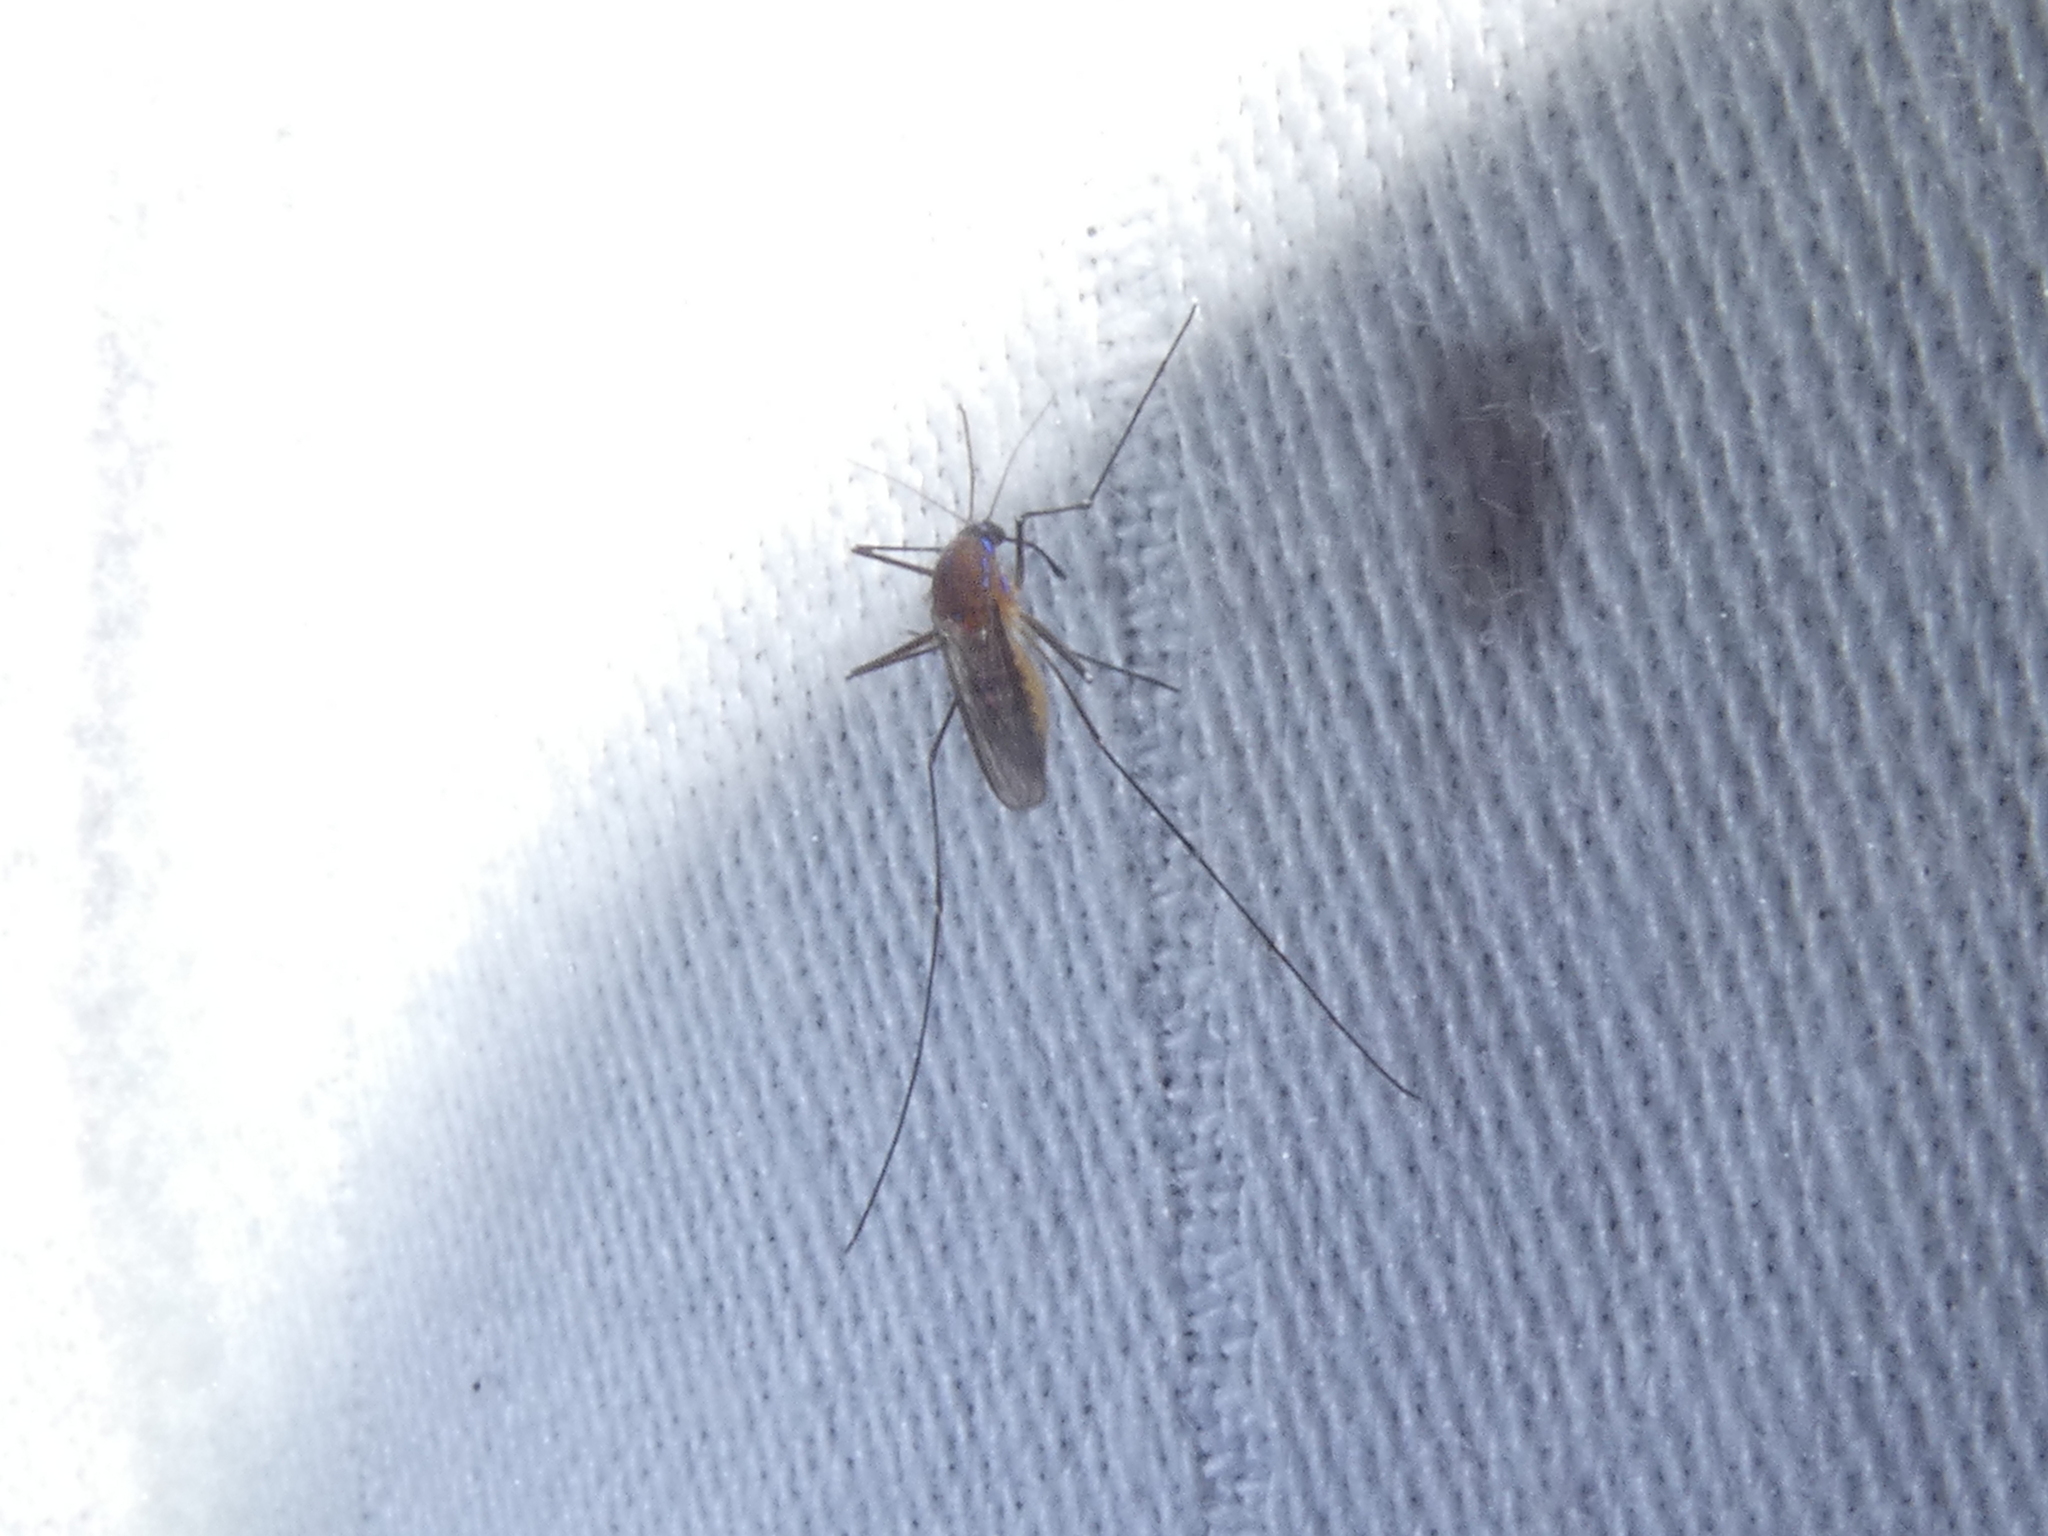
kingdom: Animalia
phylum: Arthropoda
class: Insecta
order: Diptera
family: Culicidae
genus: Uranotaenia
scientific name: Uranotaenia sapphirina
